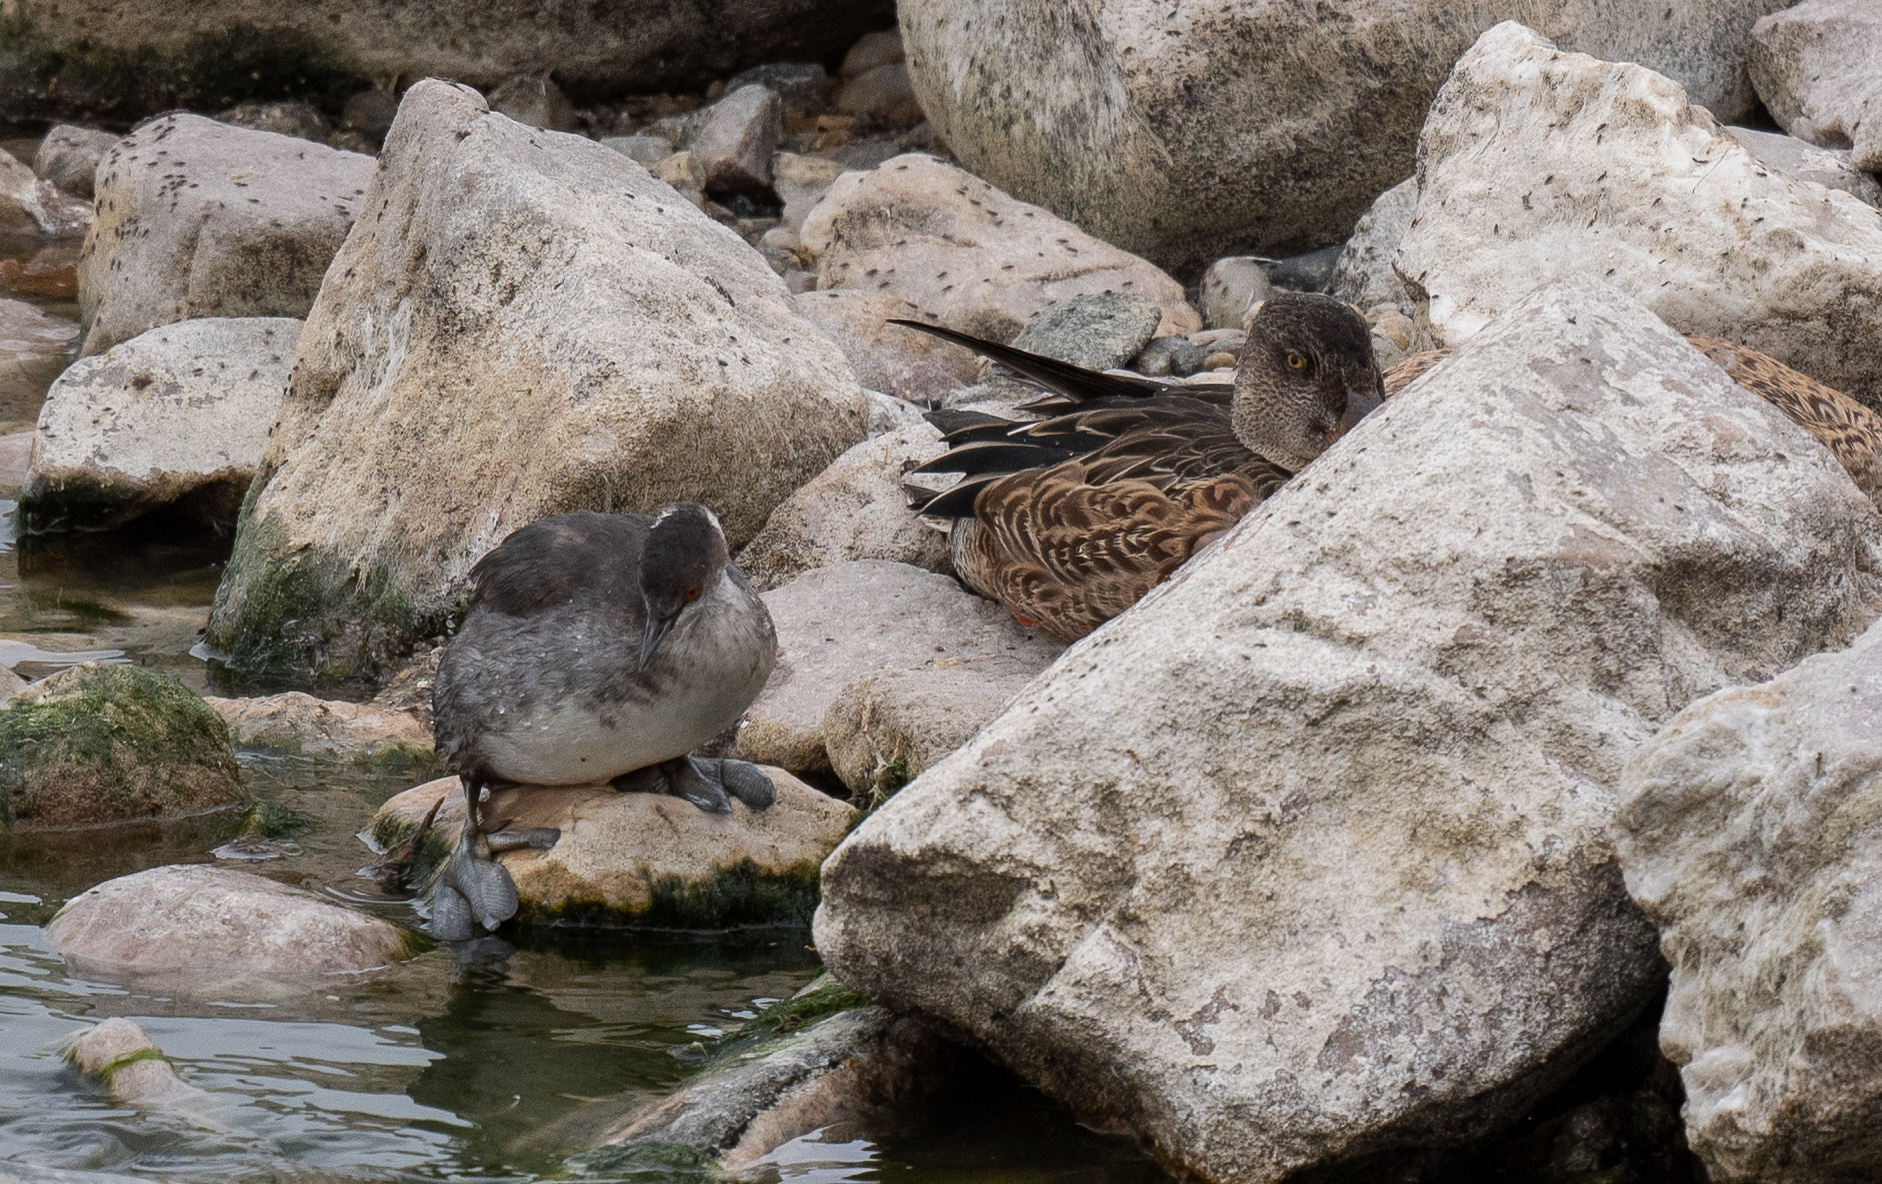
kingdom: Animalia
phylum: Chordata
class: Aves
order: Podicipediformes
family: Podicipedidae
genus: Podiceps
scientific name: Podiceps nigricollis
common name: Black-necked grebe
